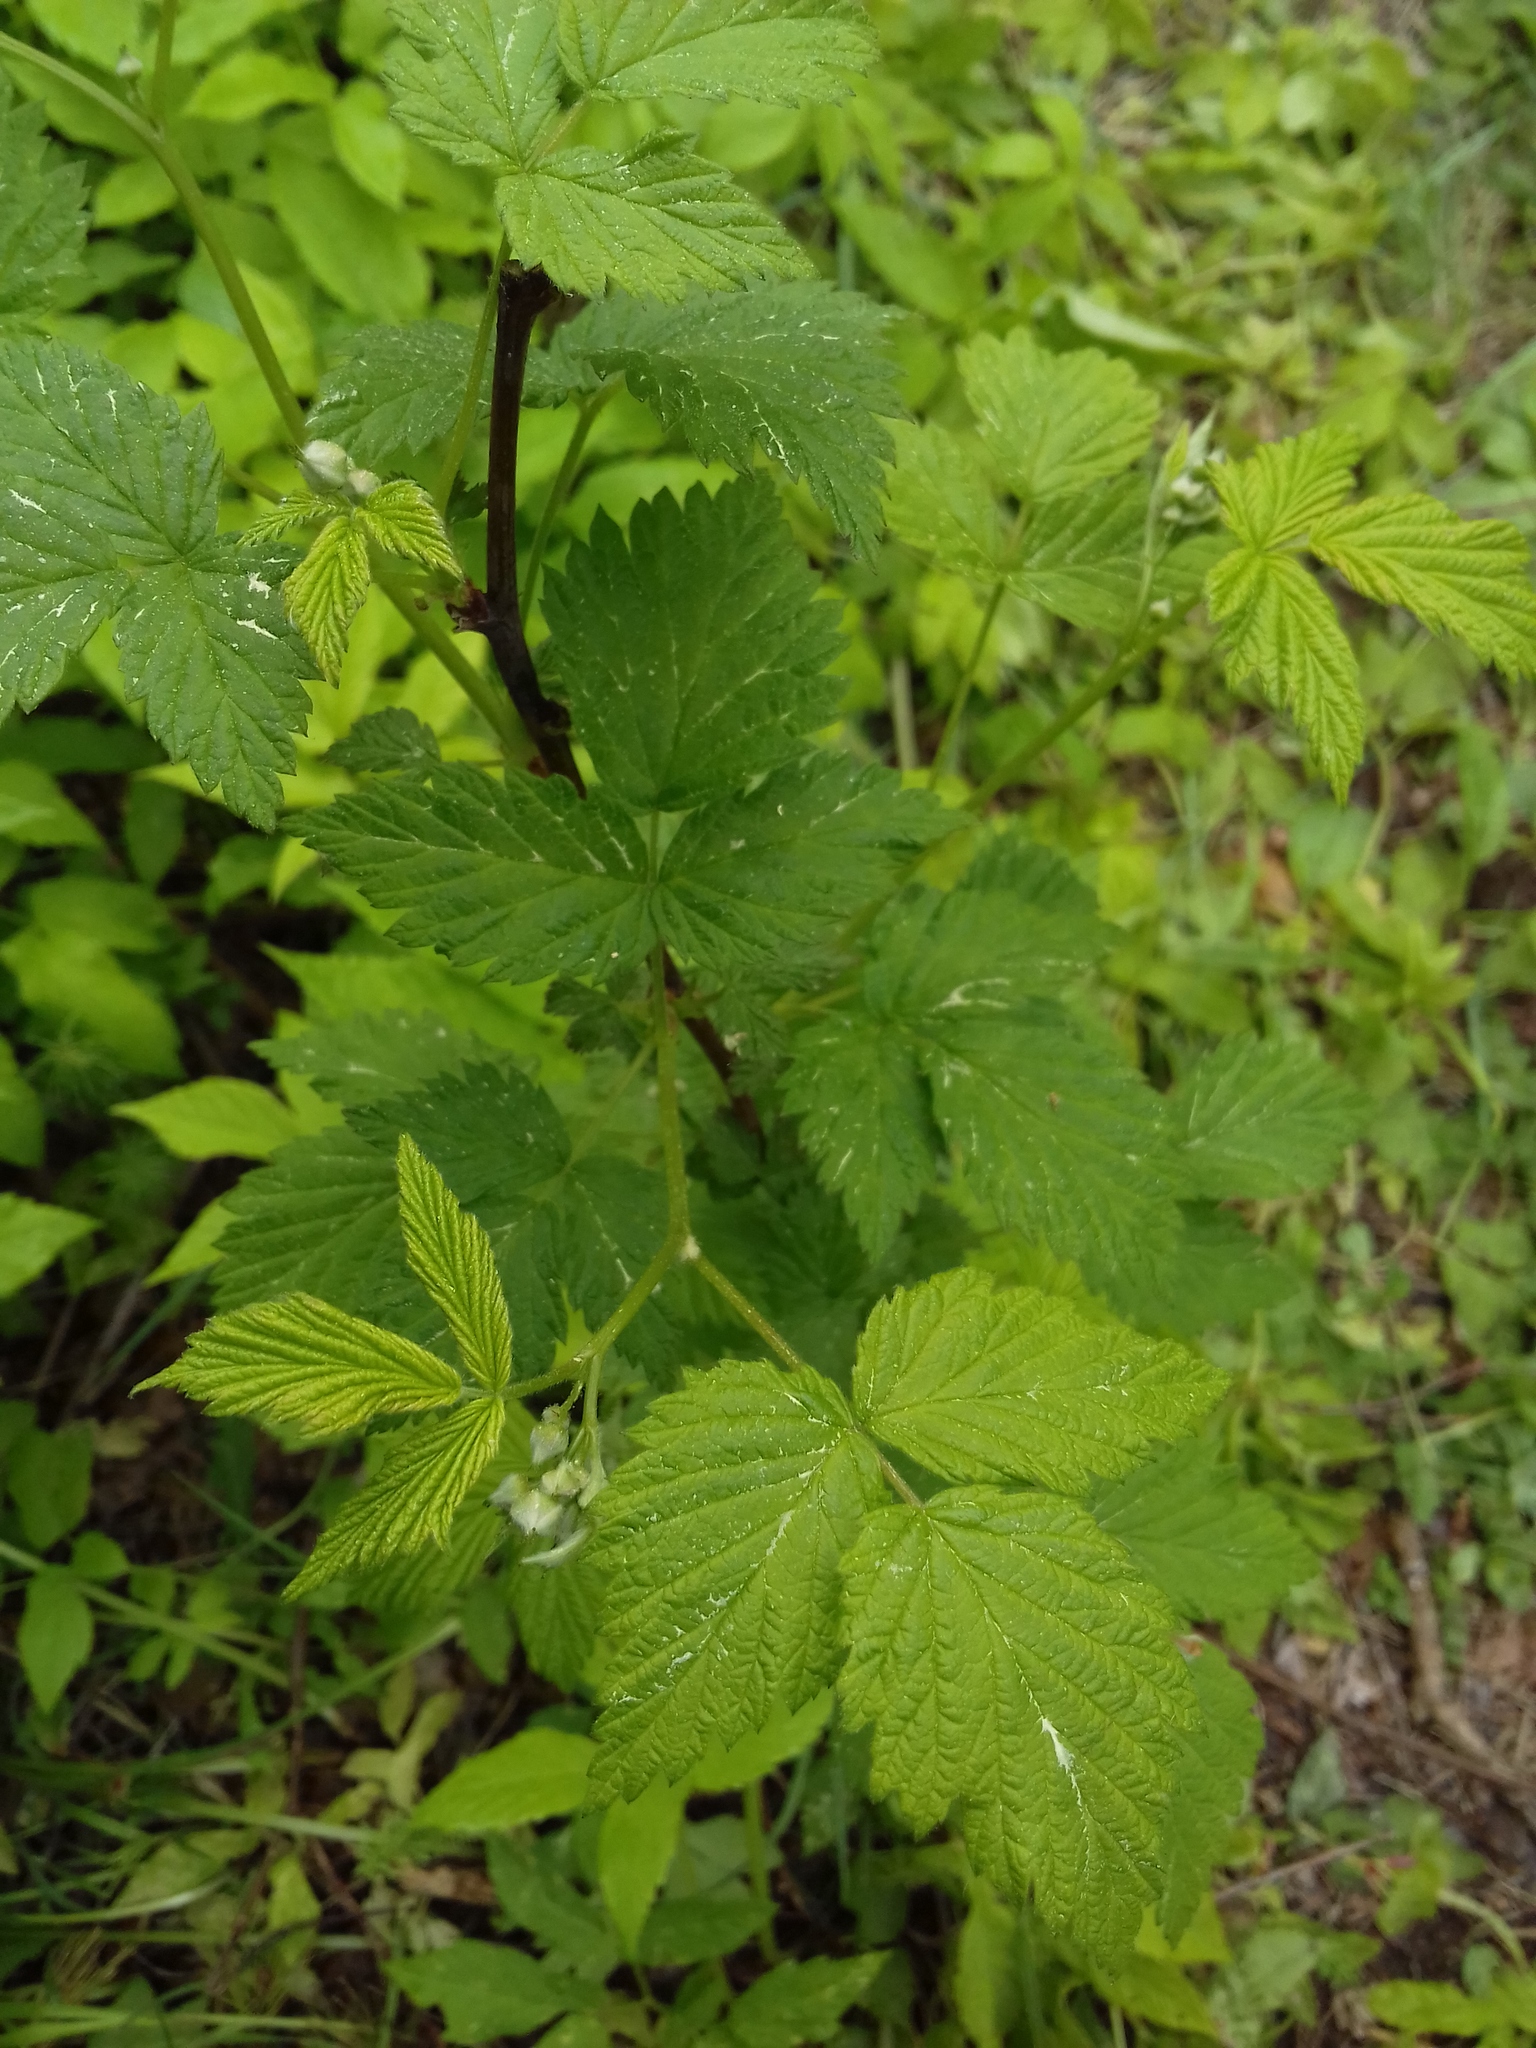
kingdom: Plantae
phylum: Tracheophyta
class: Magnoliopsida
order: Rosales
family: Rosaceae
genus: Rubus
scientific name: Rubus idaeus
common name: Raspberry
